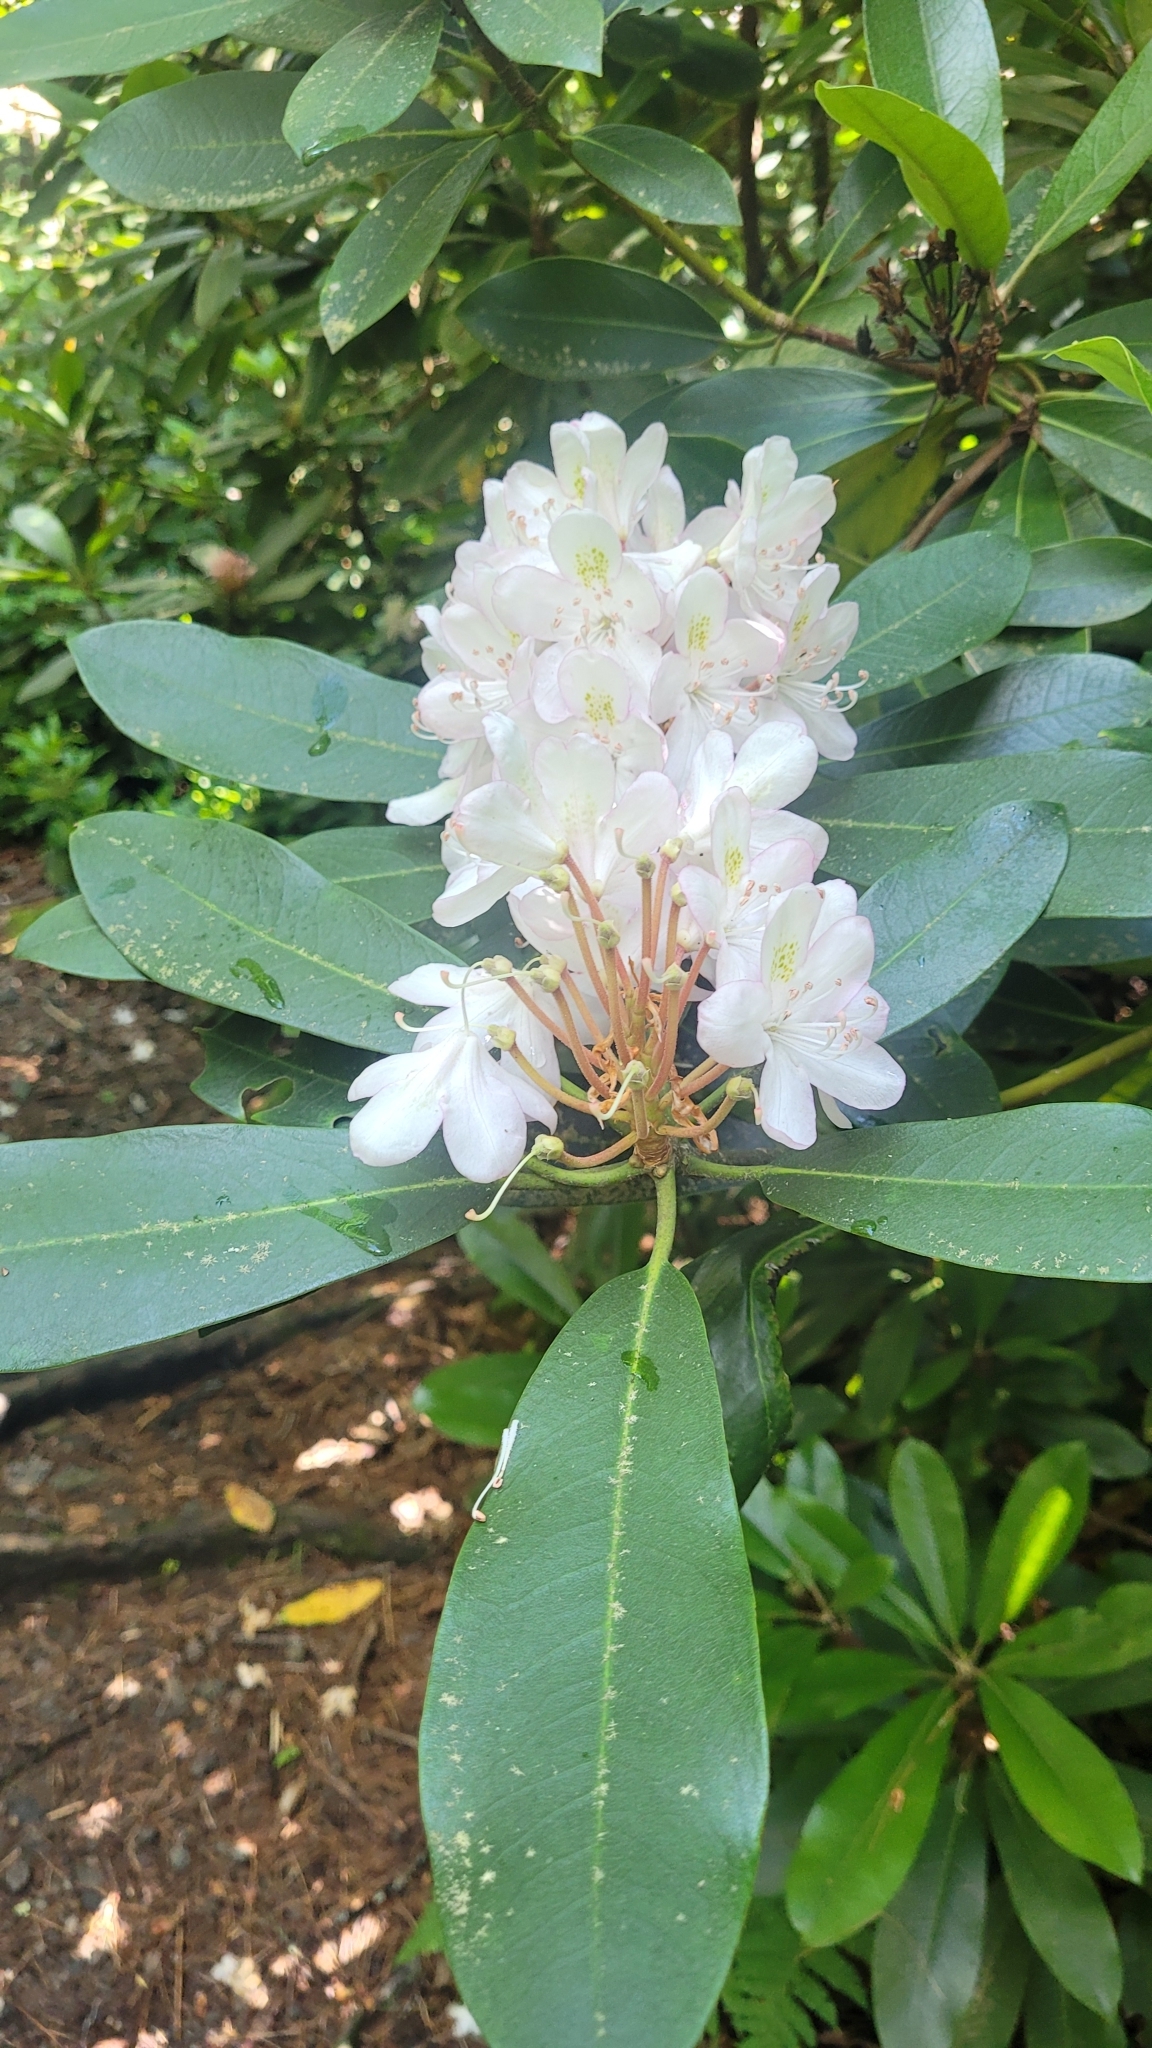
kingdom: Plantae
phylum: Tracheophyta
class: Magnoliopsida
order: Ericales
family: Ericaceae
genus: Rhododendron
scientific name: Rhododendron maximum
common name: Great rhododendron
